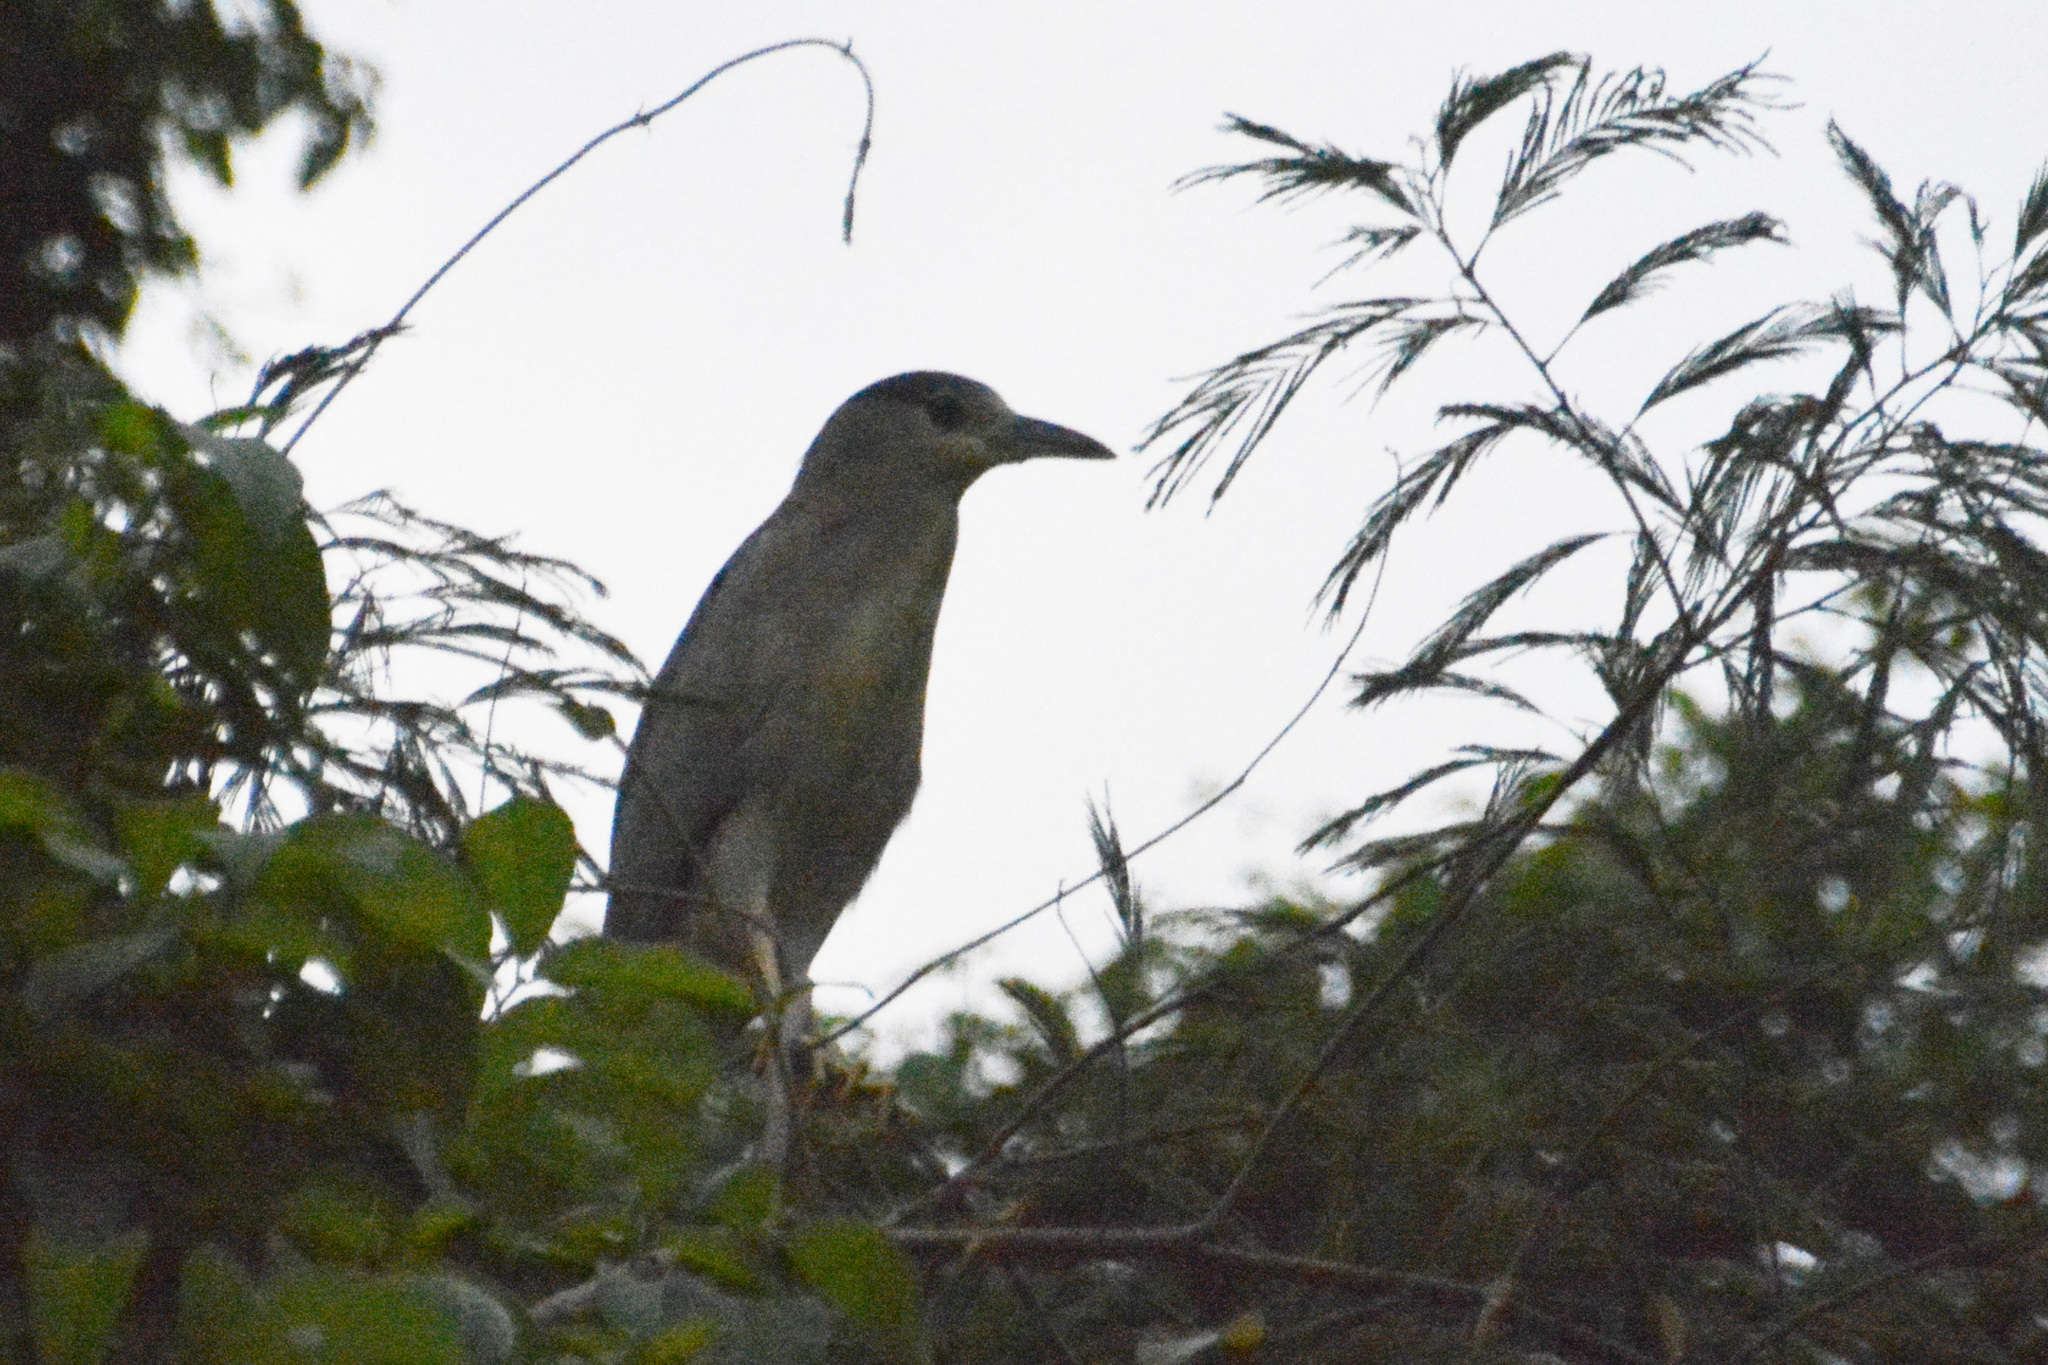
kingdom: Animalia
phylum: Chordata
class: Aves
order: Pelecaniformes
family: Ardeidae
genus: Nycticorax
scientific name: Nycticorax nycticorax
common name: Black-crowned night heron
